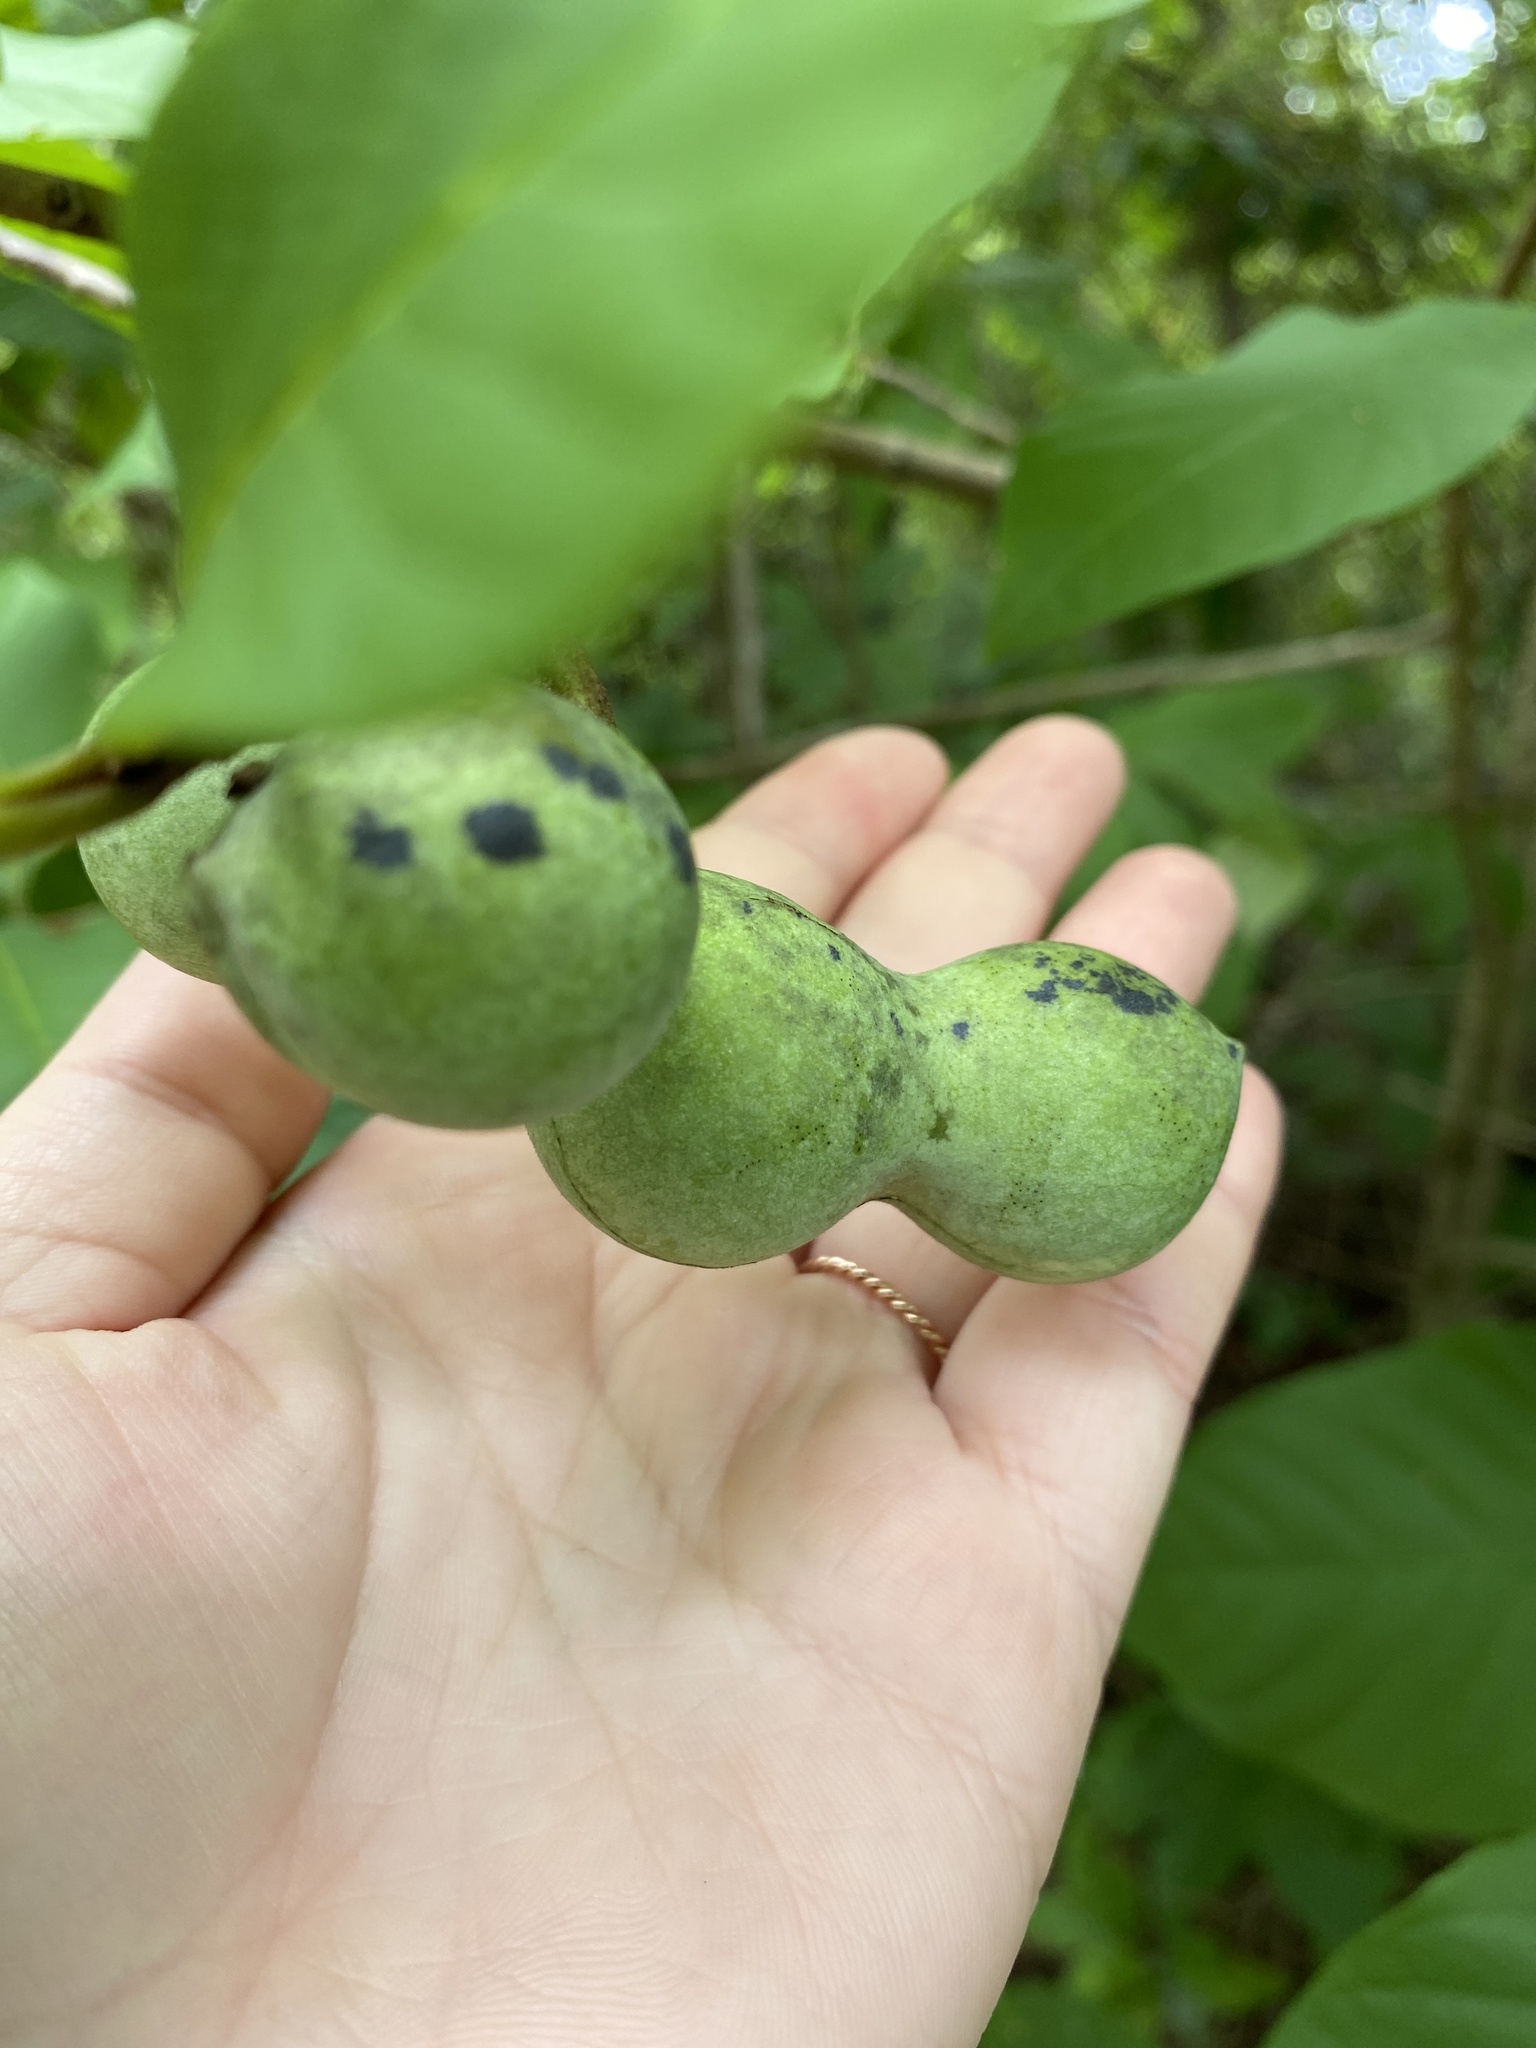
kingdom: Plantae
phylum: Tracheophyta
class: Magnoliopsida
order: Magnoliales
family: Annonaceae
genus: Asimina
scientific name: Asimina triloba
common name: Dog-banana
